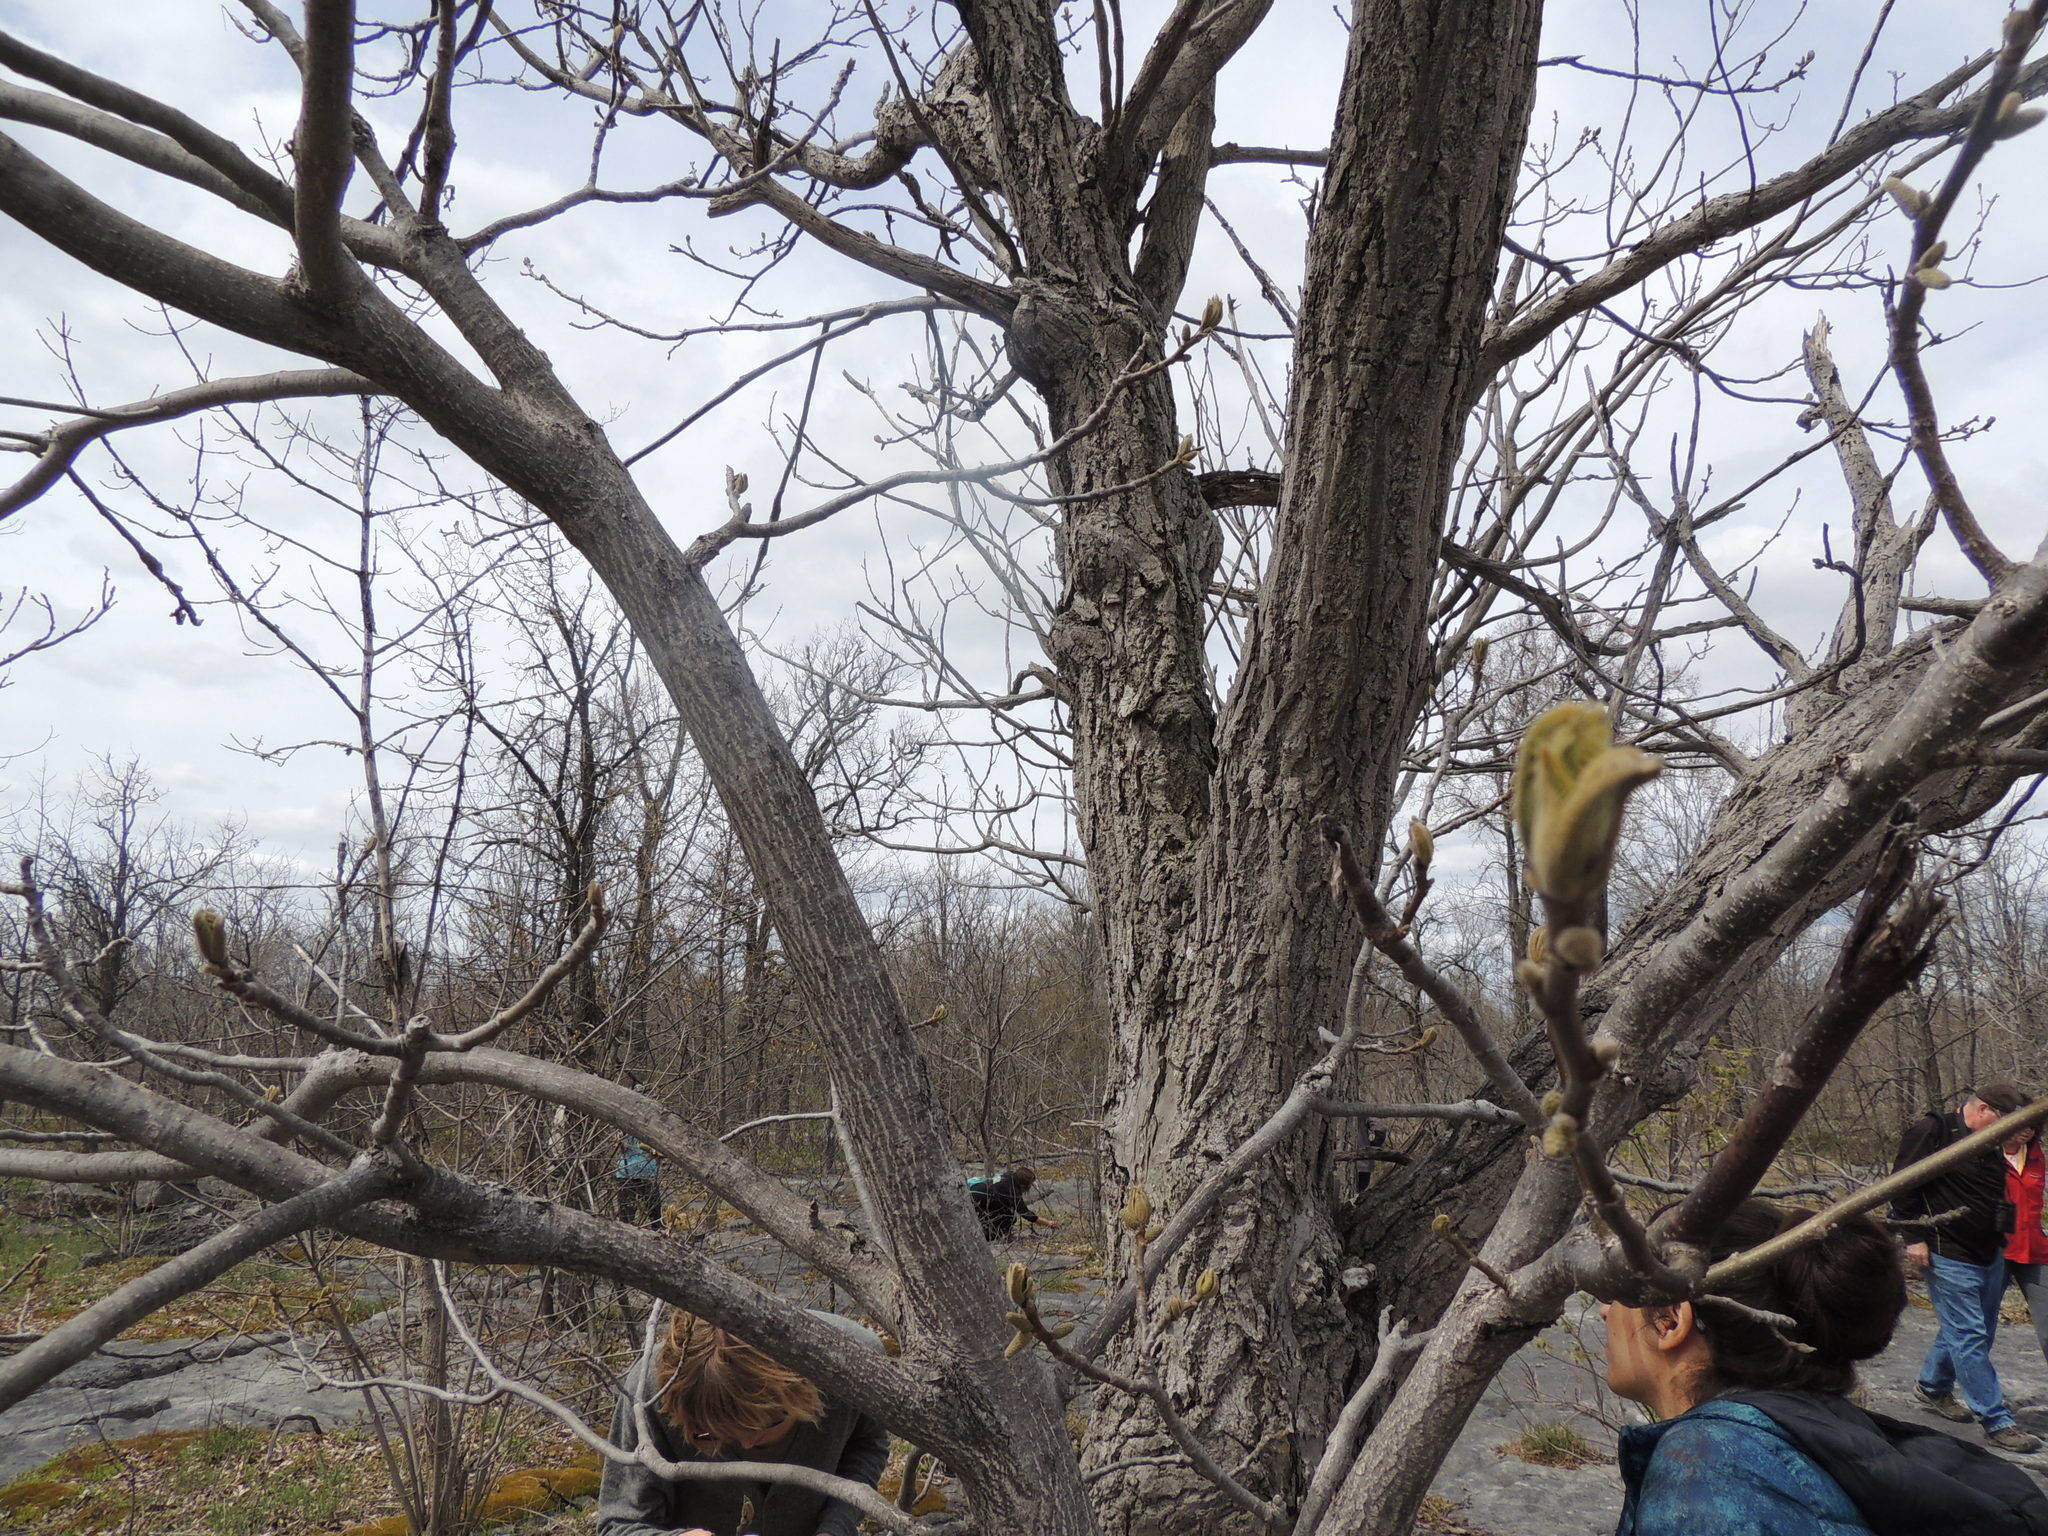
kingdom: Plantae
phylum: Tracheophyta
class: Magnoliopsida
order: Fagales
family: Juglandaceae
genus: Juglans
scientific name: Juglans cinerea
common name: Butternut
